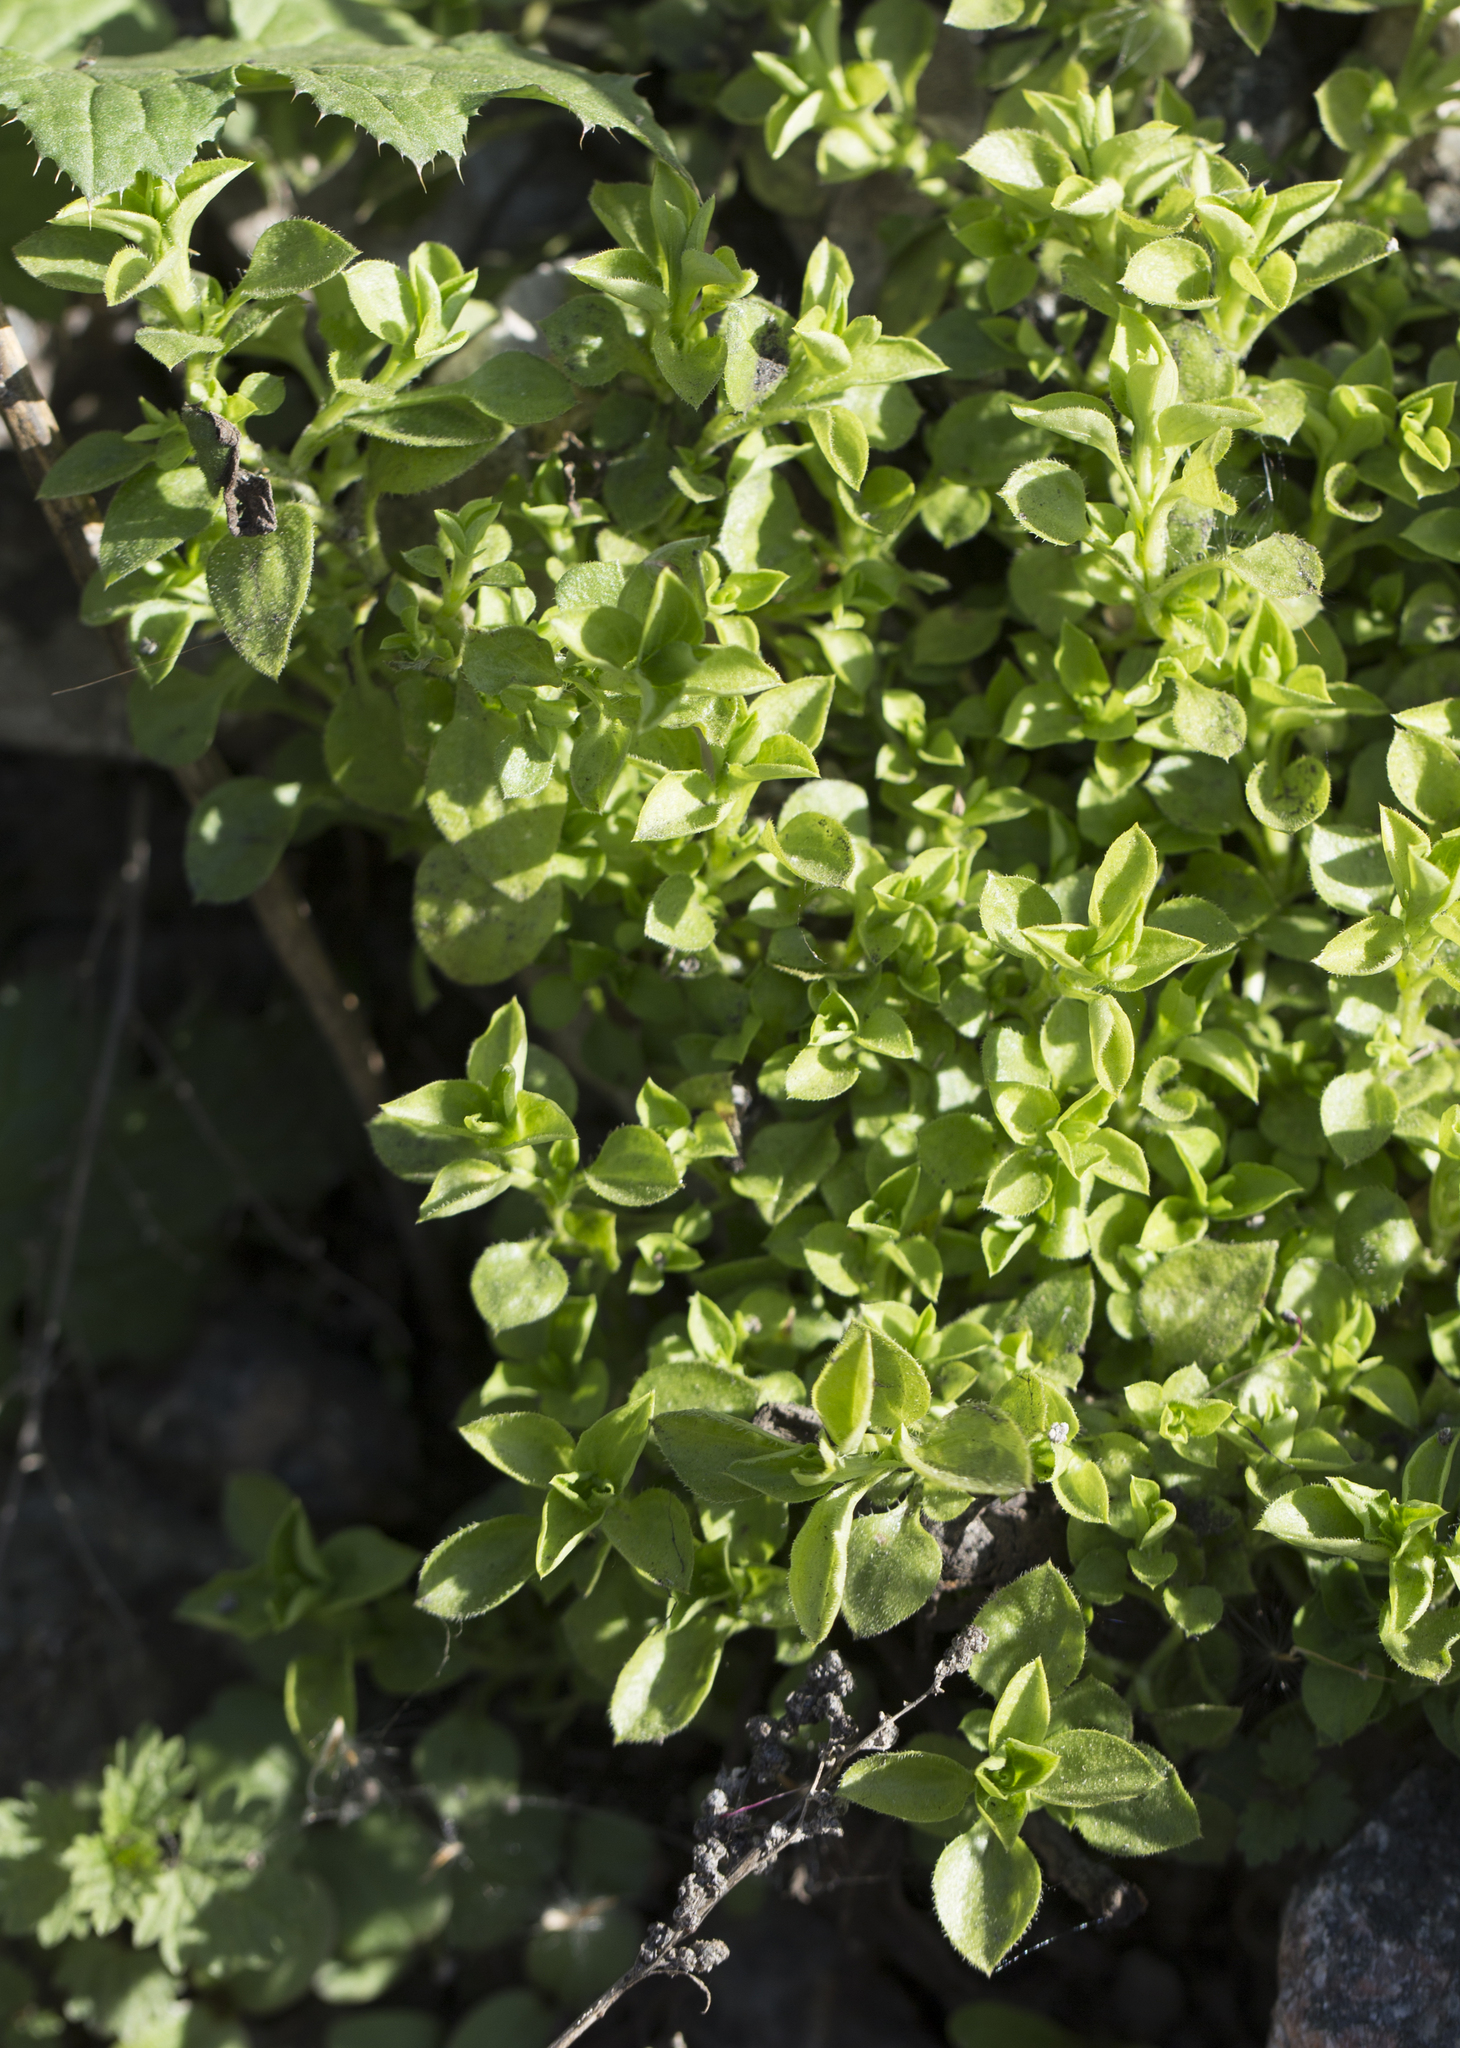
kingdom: Plantae
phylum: Tracheophyta
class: Magnoliopsida
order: Caryophyllales
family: Caryophyllaceae
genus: Moehringia
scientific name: Moehringia trinervia
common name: Three-nerved sandwort
